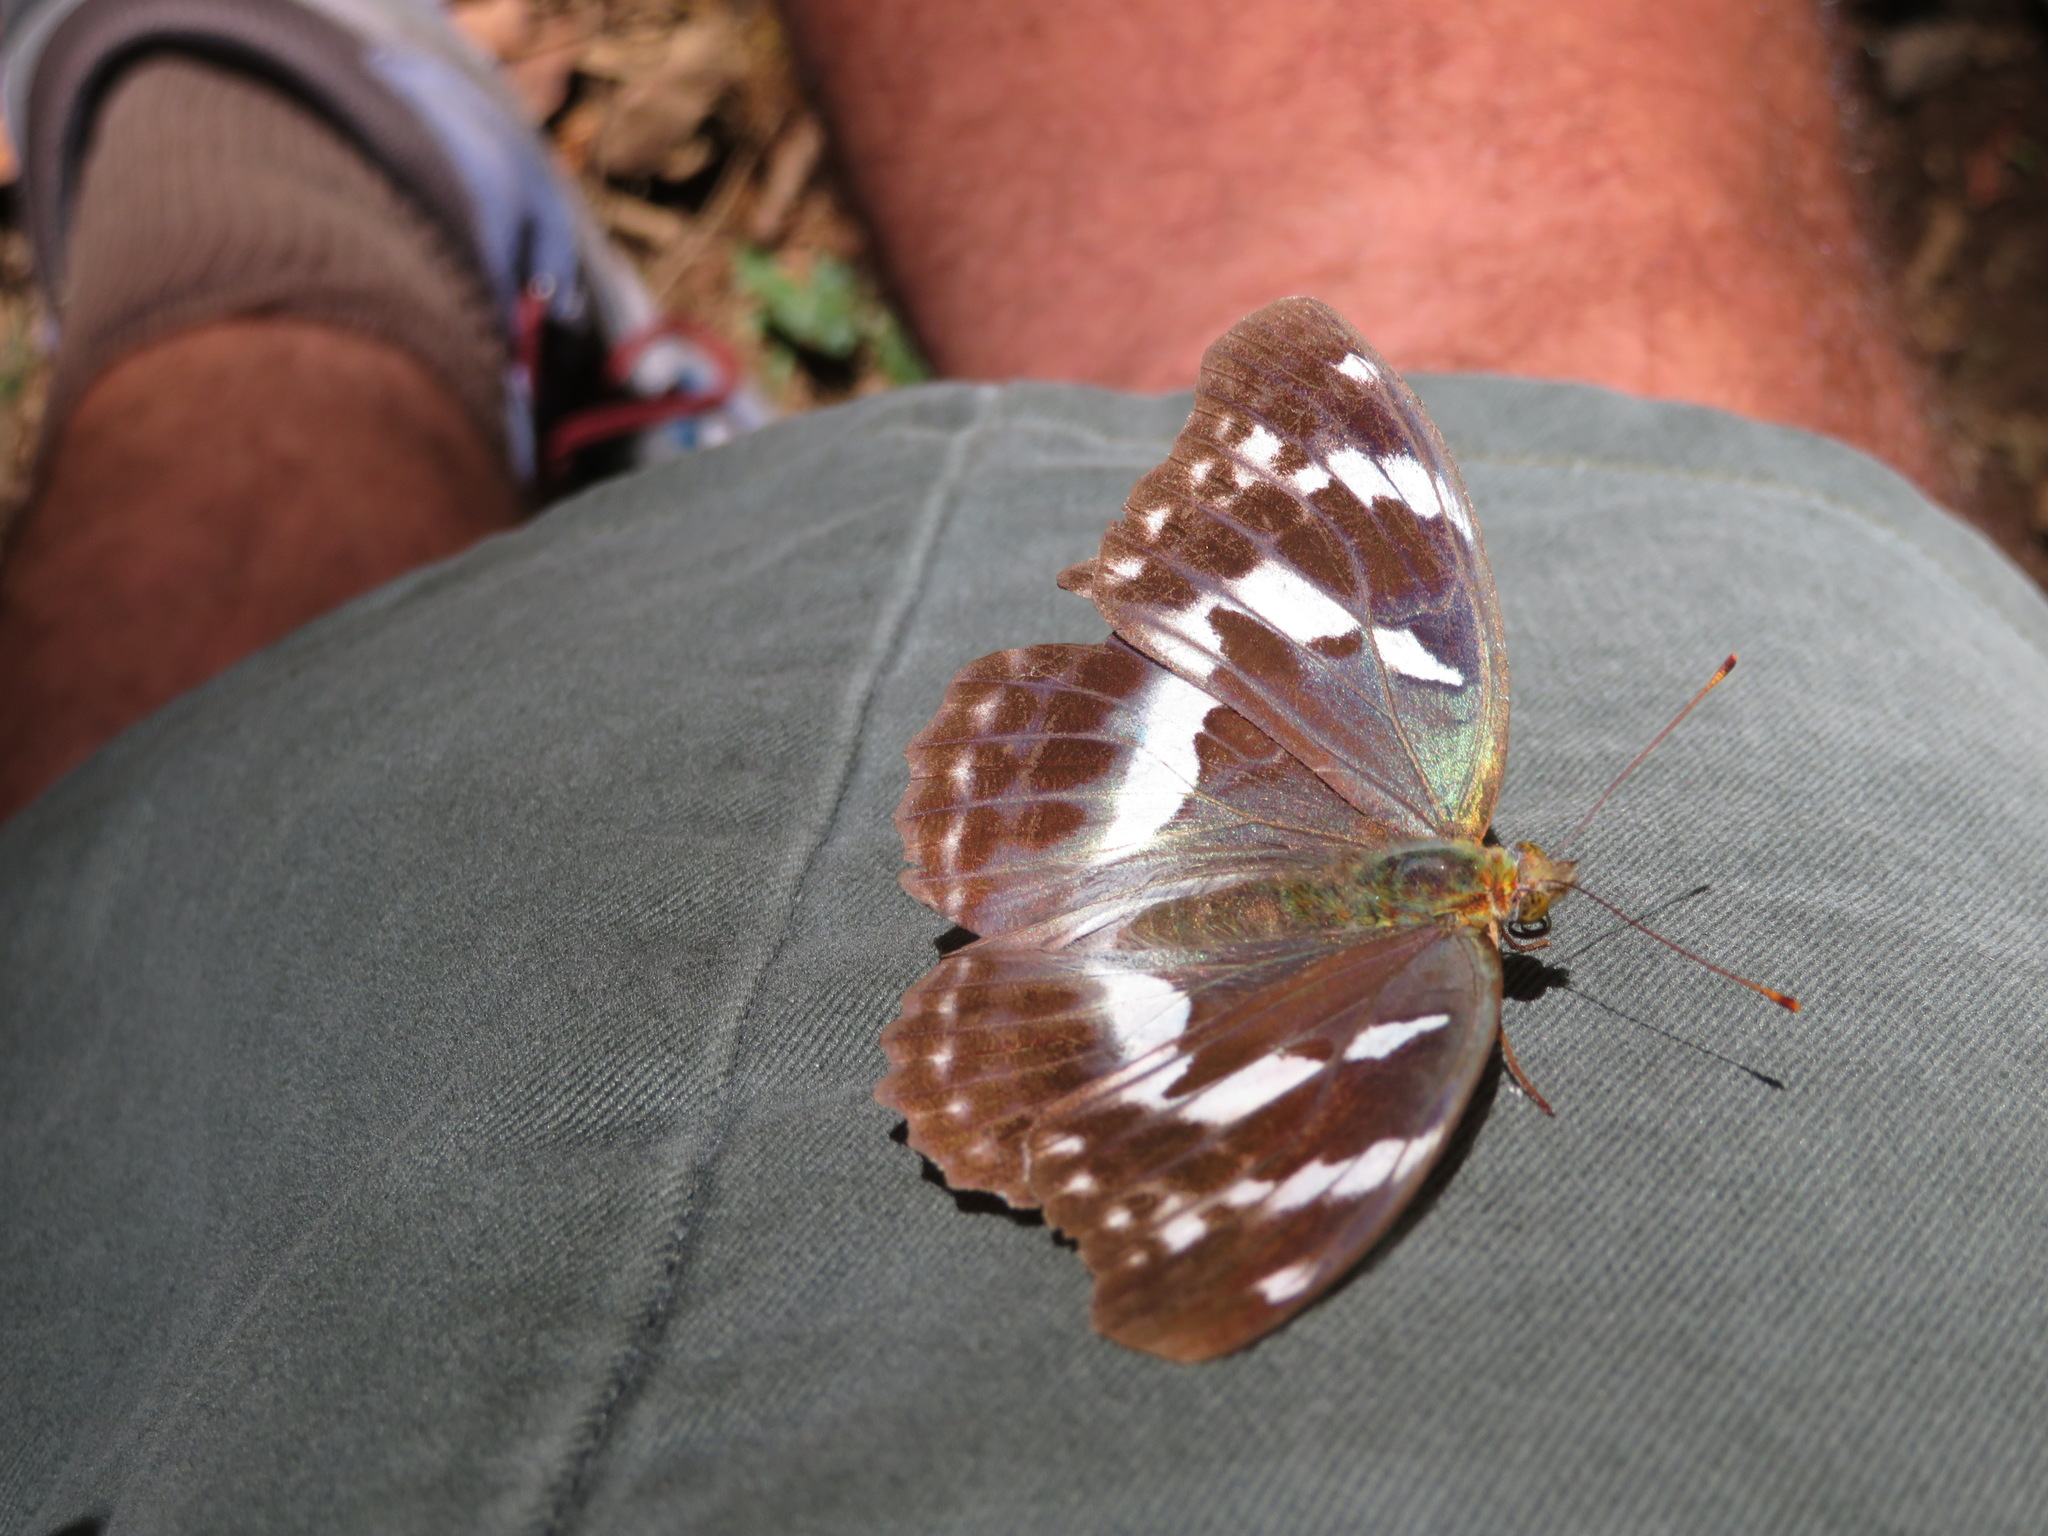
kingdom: Animalia
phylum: Arthropoda
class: Insecta
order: Lepidoptera
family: Nymphalidae
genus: Damora
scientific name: Damora sagana
